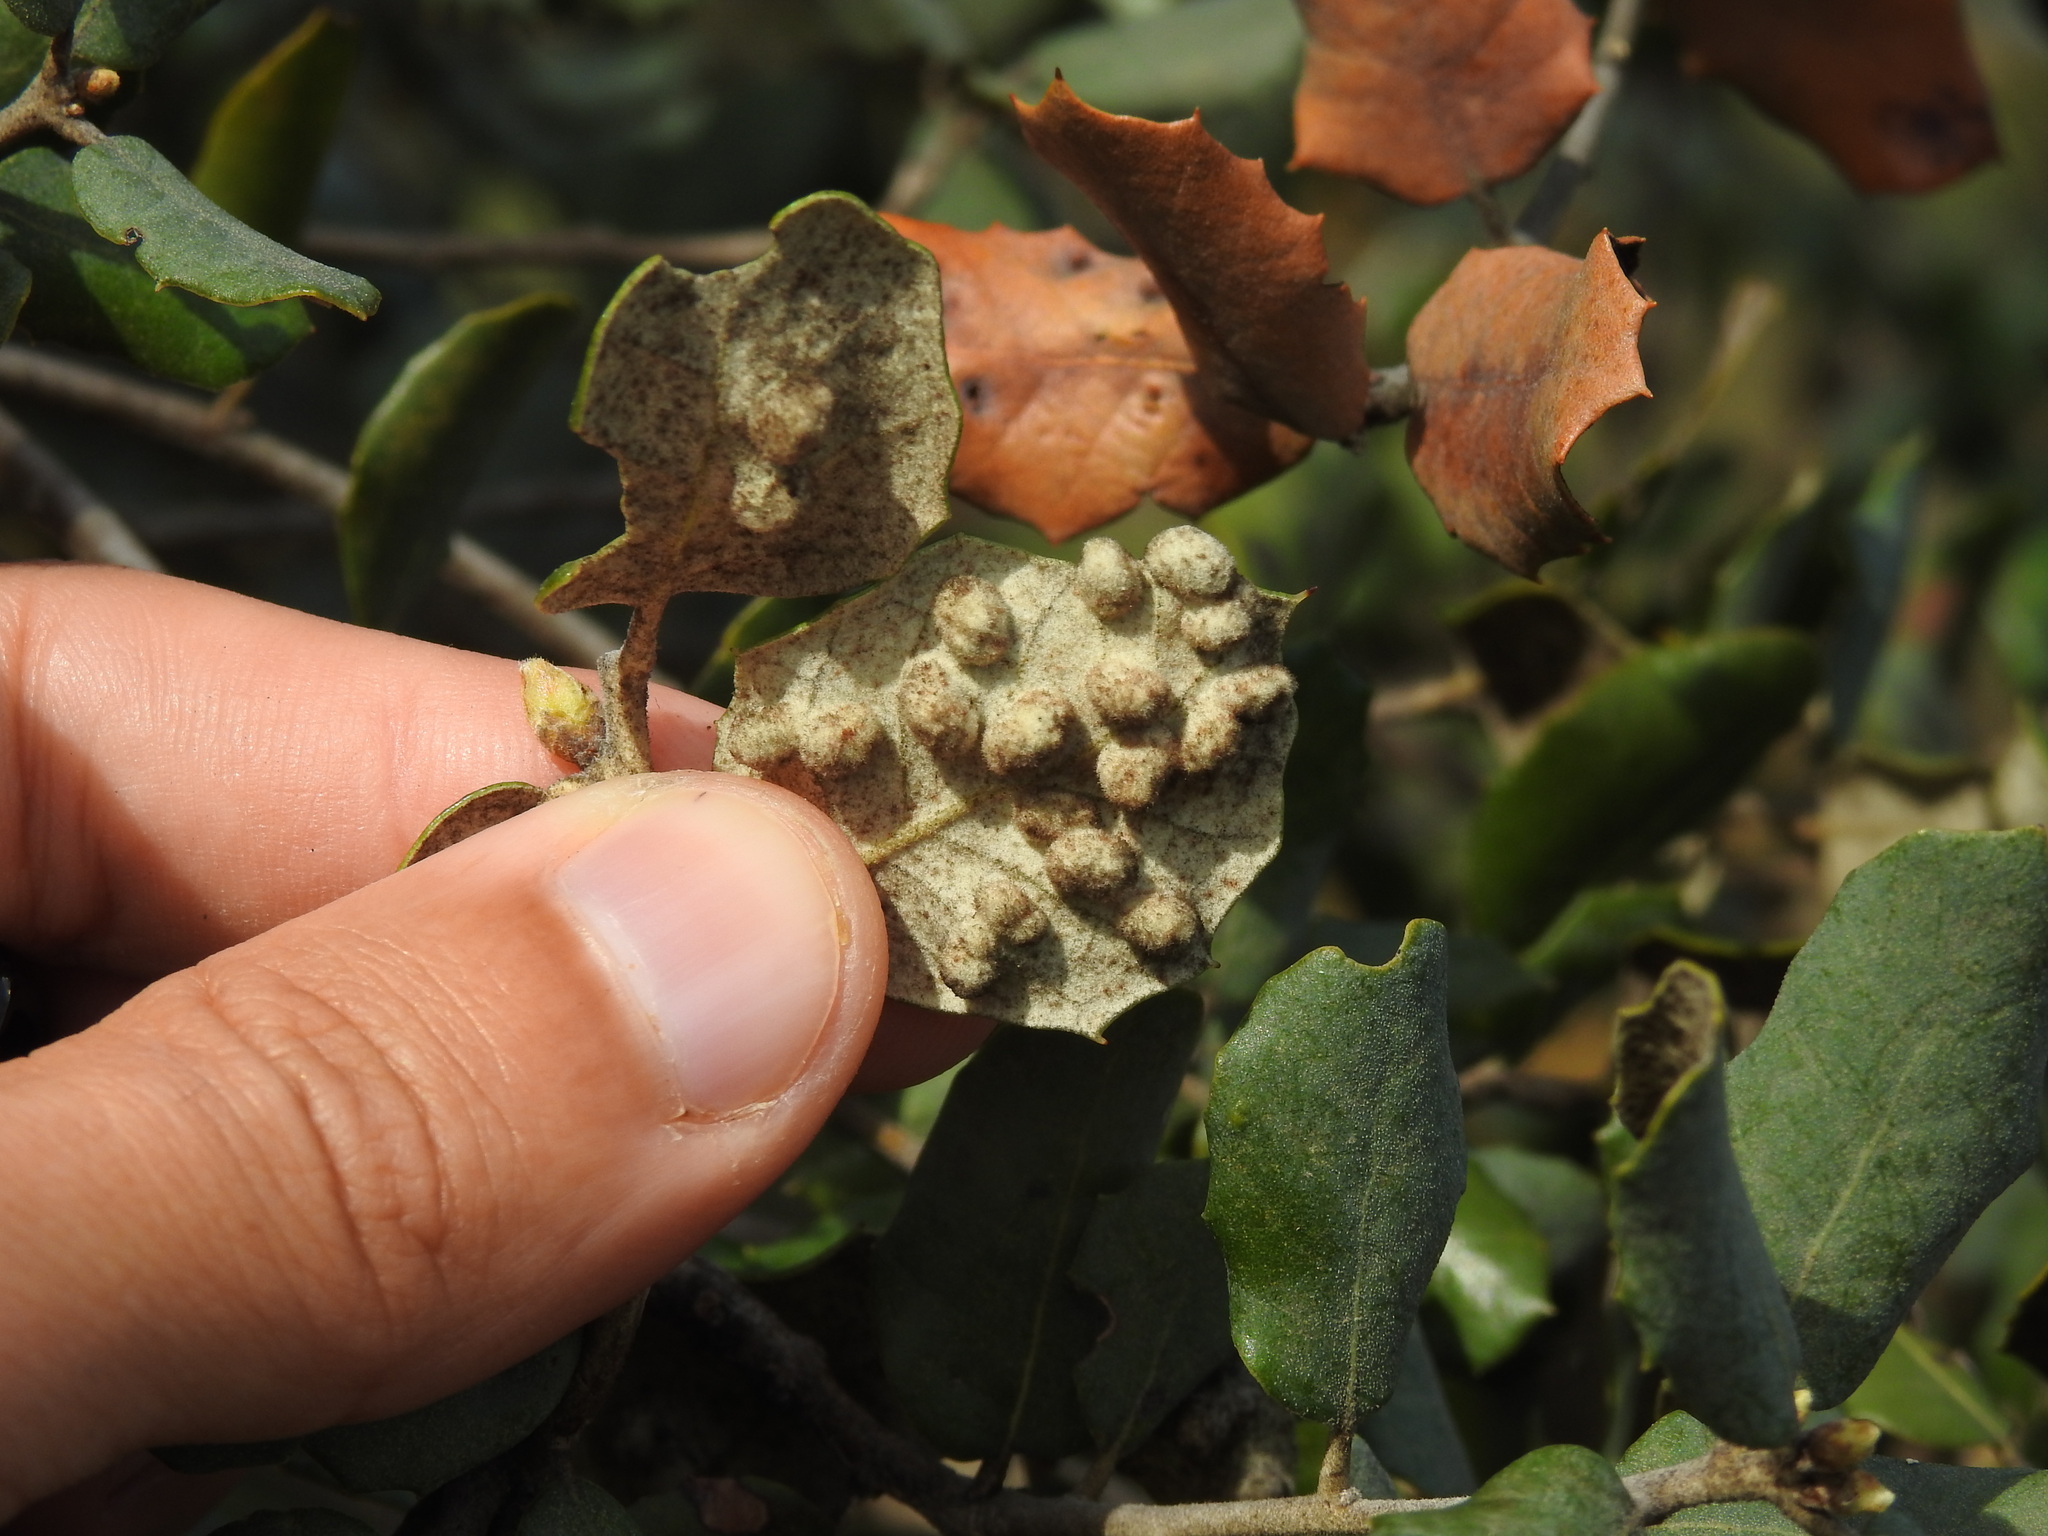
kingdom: Animalia
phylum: Arthropoda
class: Insecta
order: Diptera
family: Cecidomyiidae
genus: Dryomyia
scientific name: Dryomyia lichtensteinii
